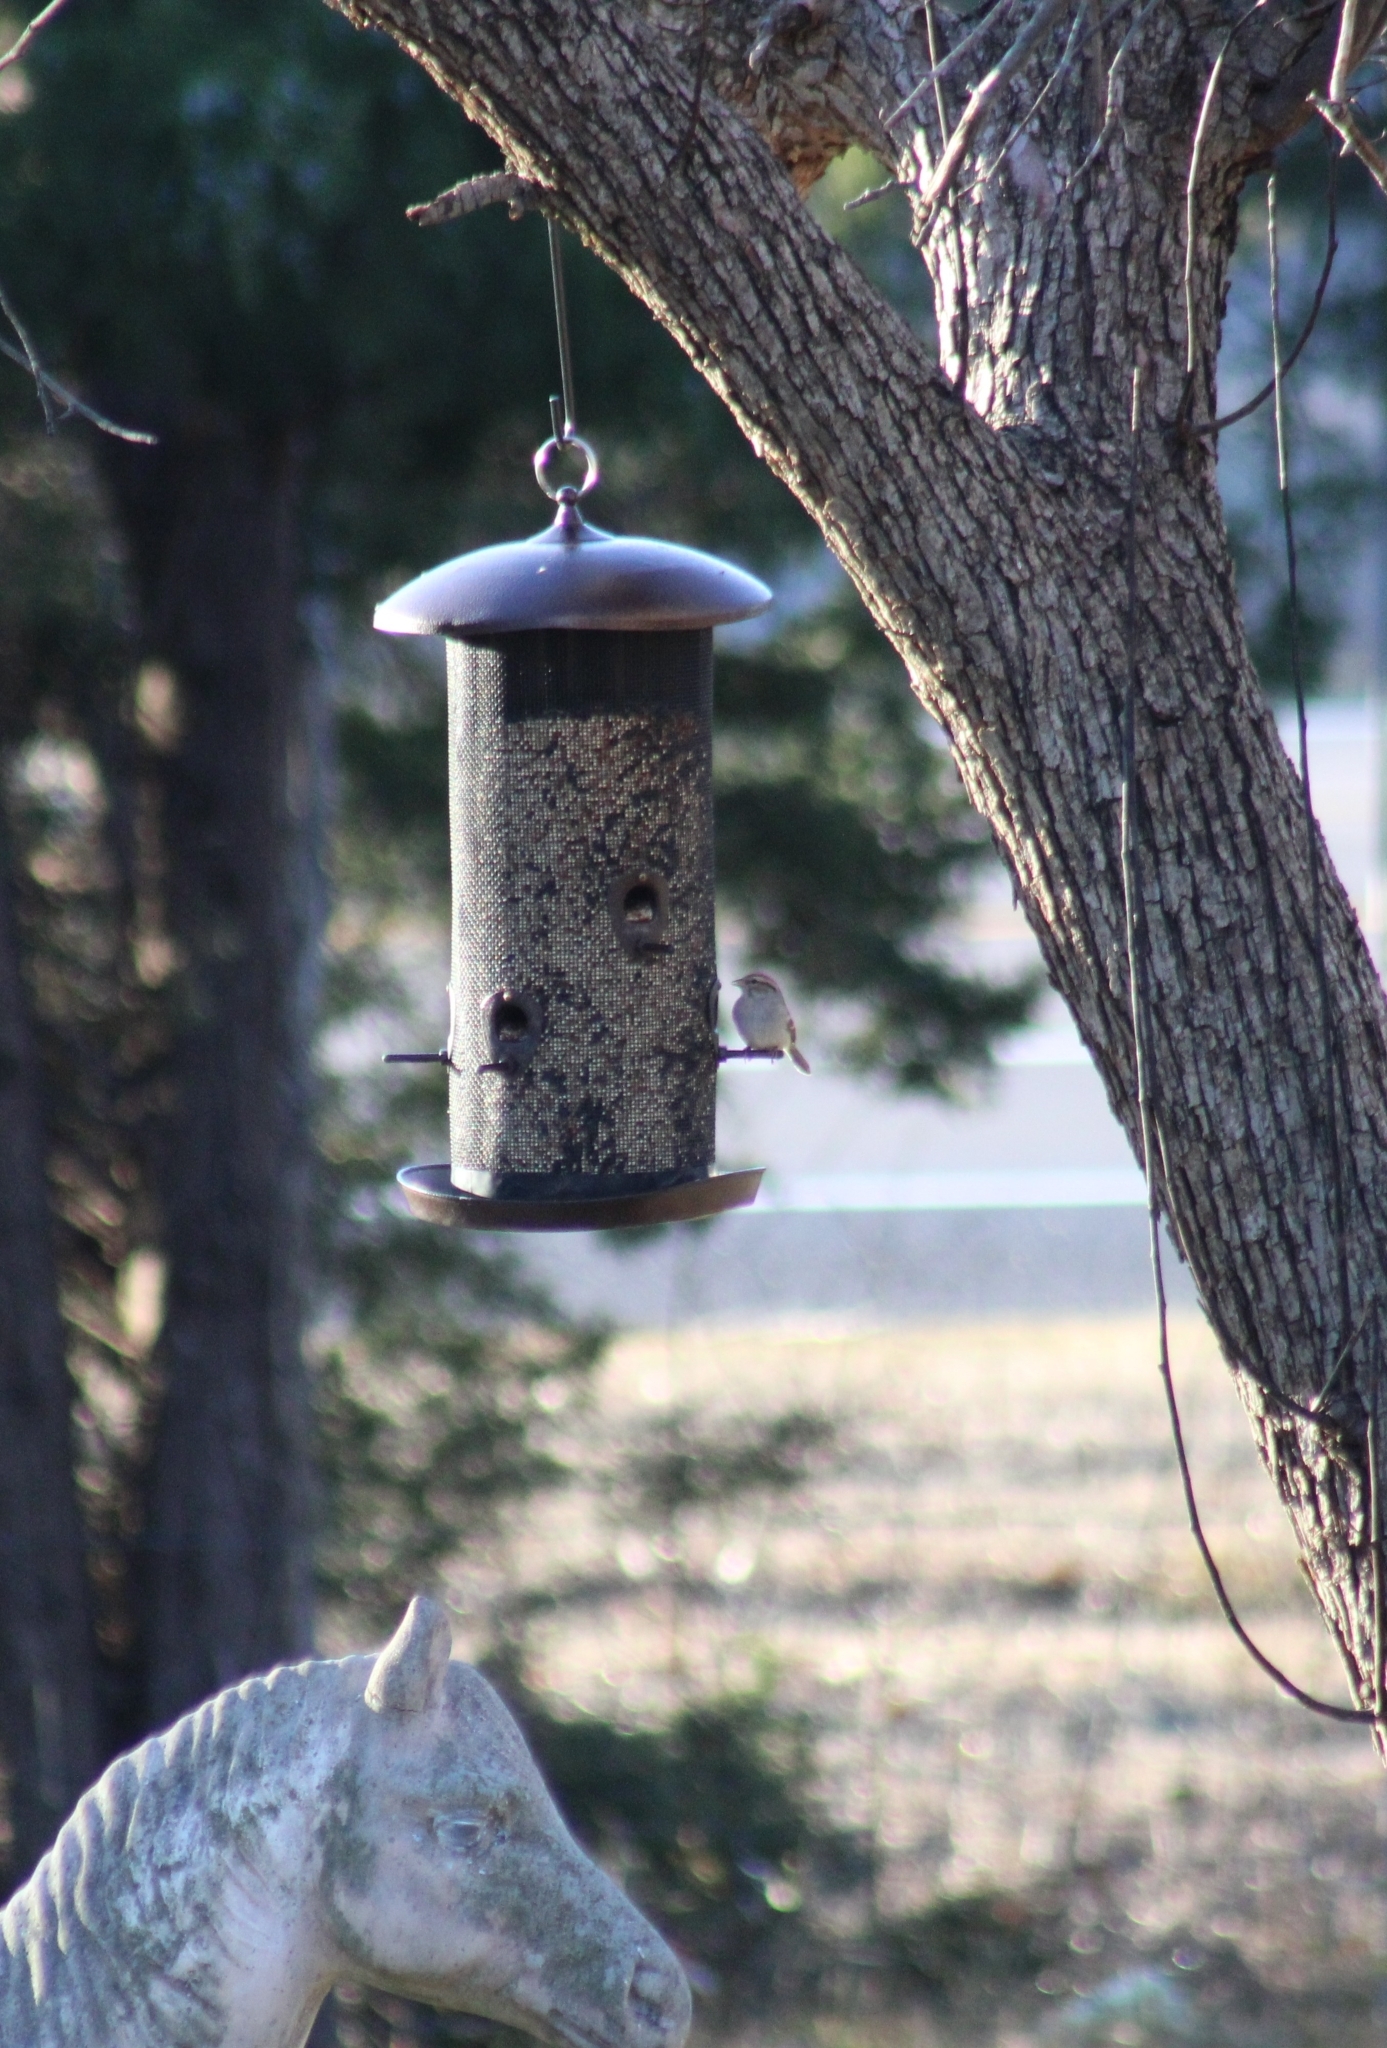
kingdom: Animalia
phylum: Chordata
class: Aves
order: Passeriformes
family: Passerellidae
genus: Spizella
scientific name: Spizella passerina
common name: Chipping sparrow
